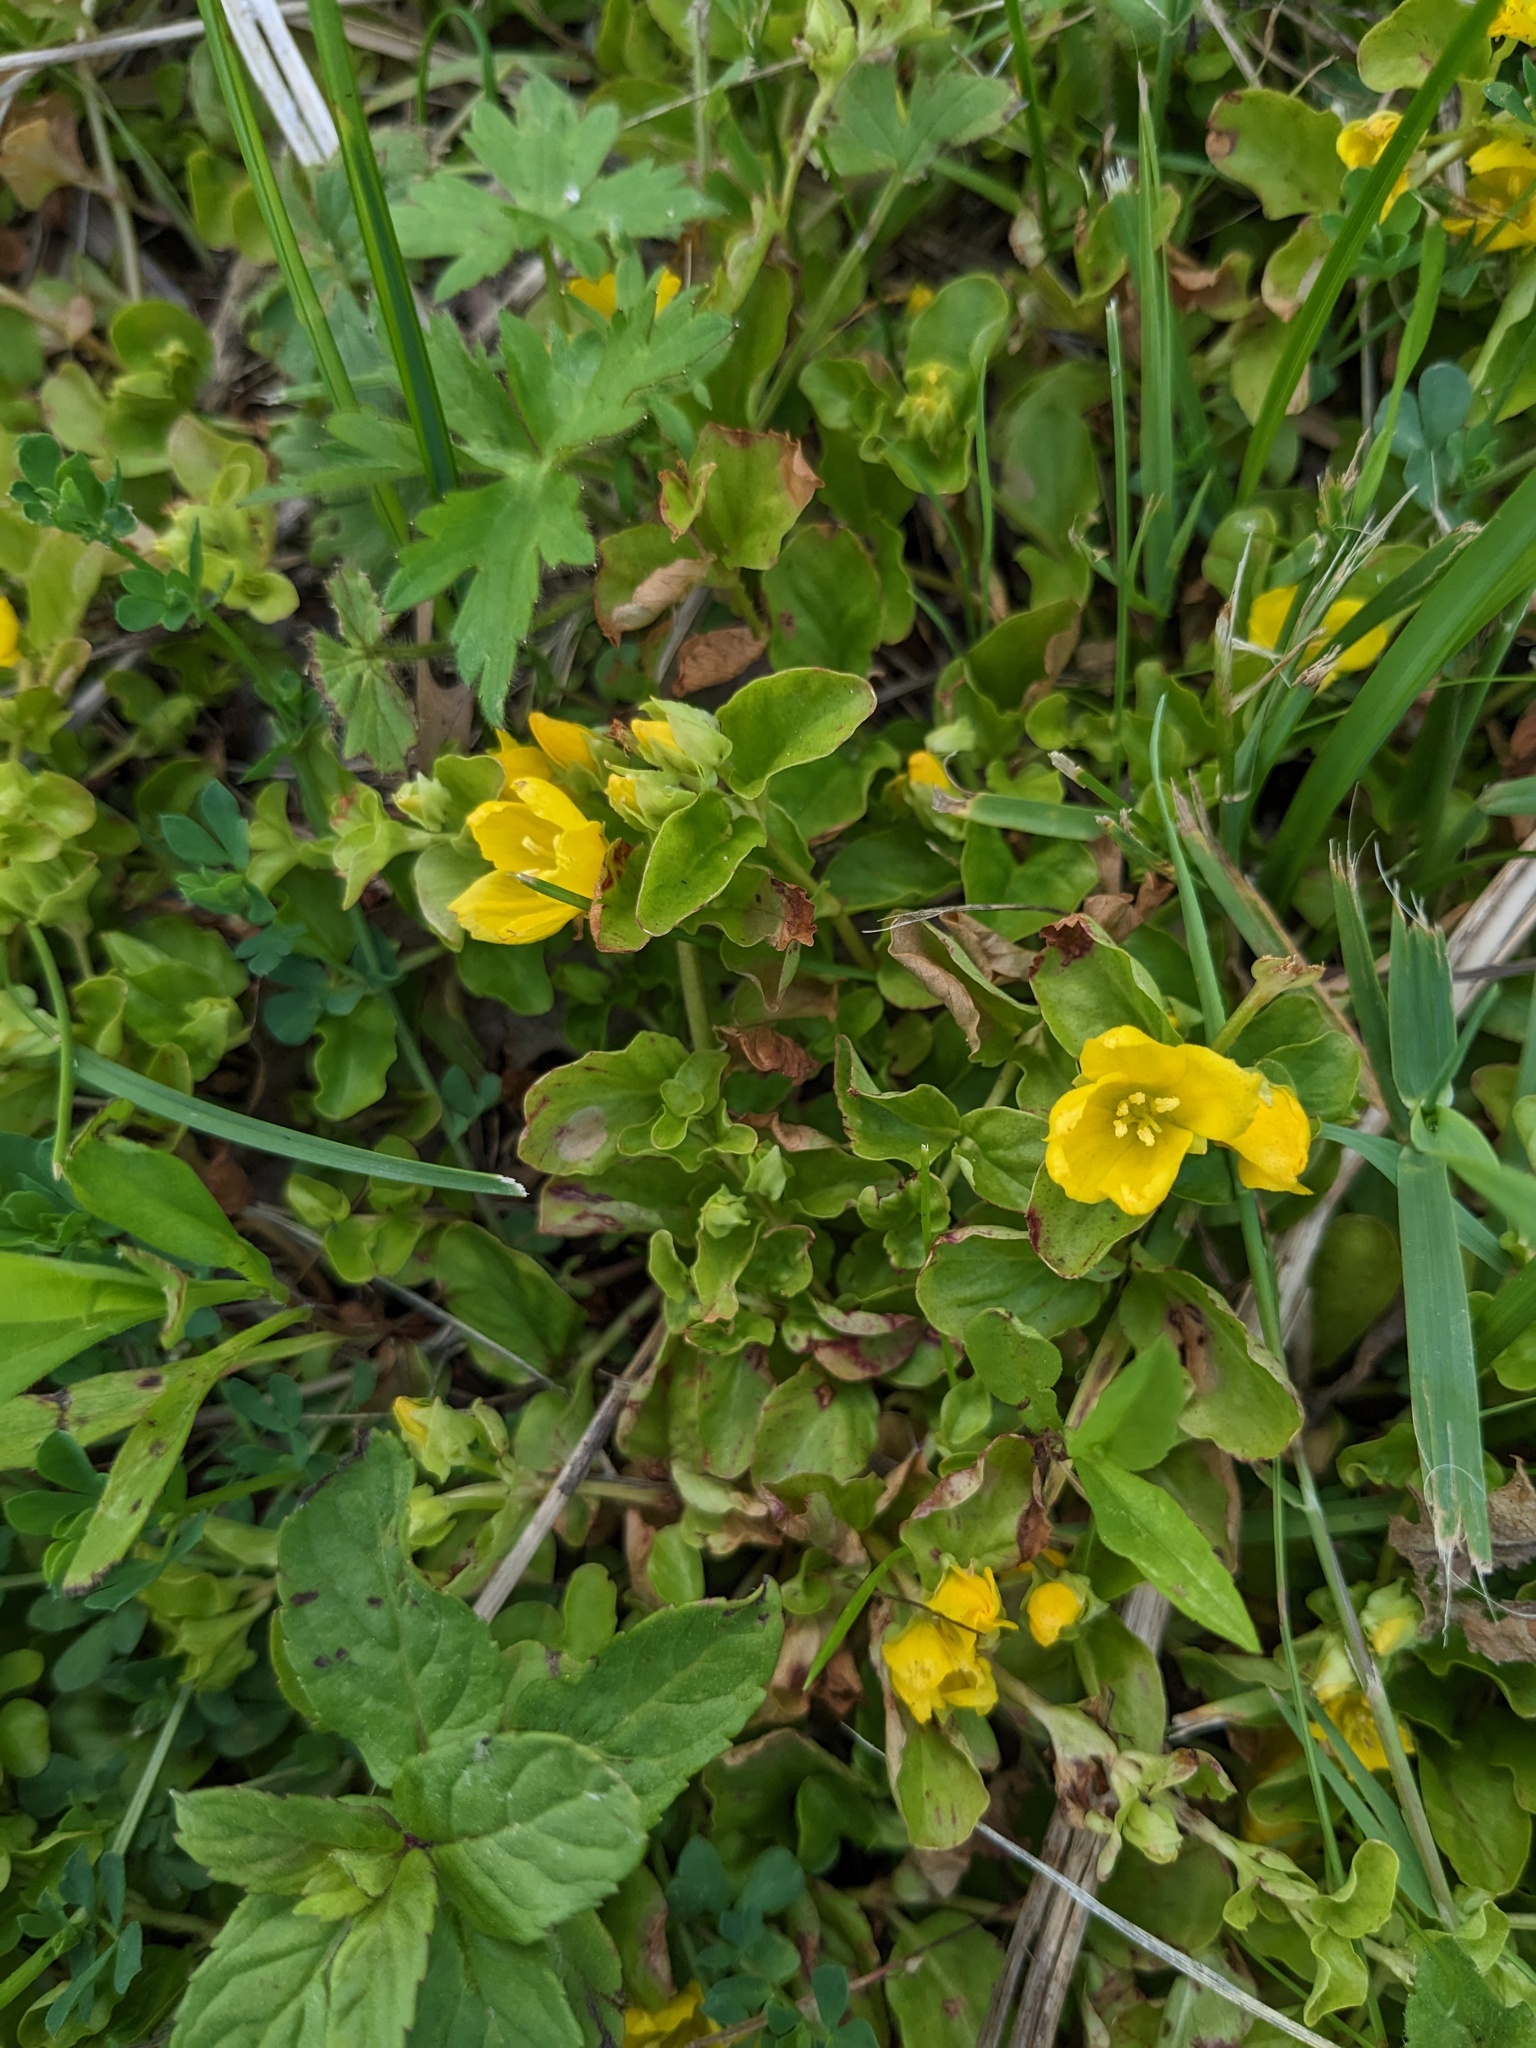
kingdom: Plantae
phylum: Tracheophyta
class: Magnoliopsida
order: Ericales
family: Primulaceae
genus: Lysimachia
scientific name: Lysimachia nummularia
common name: Moneywort
